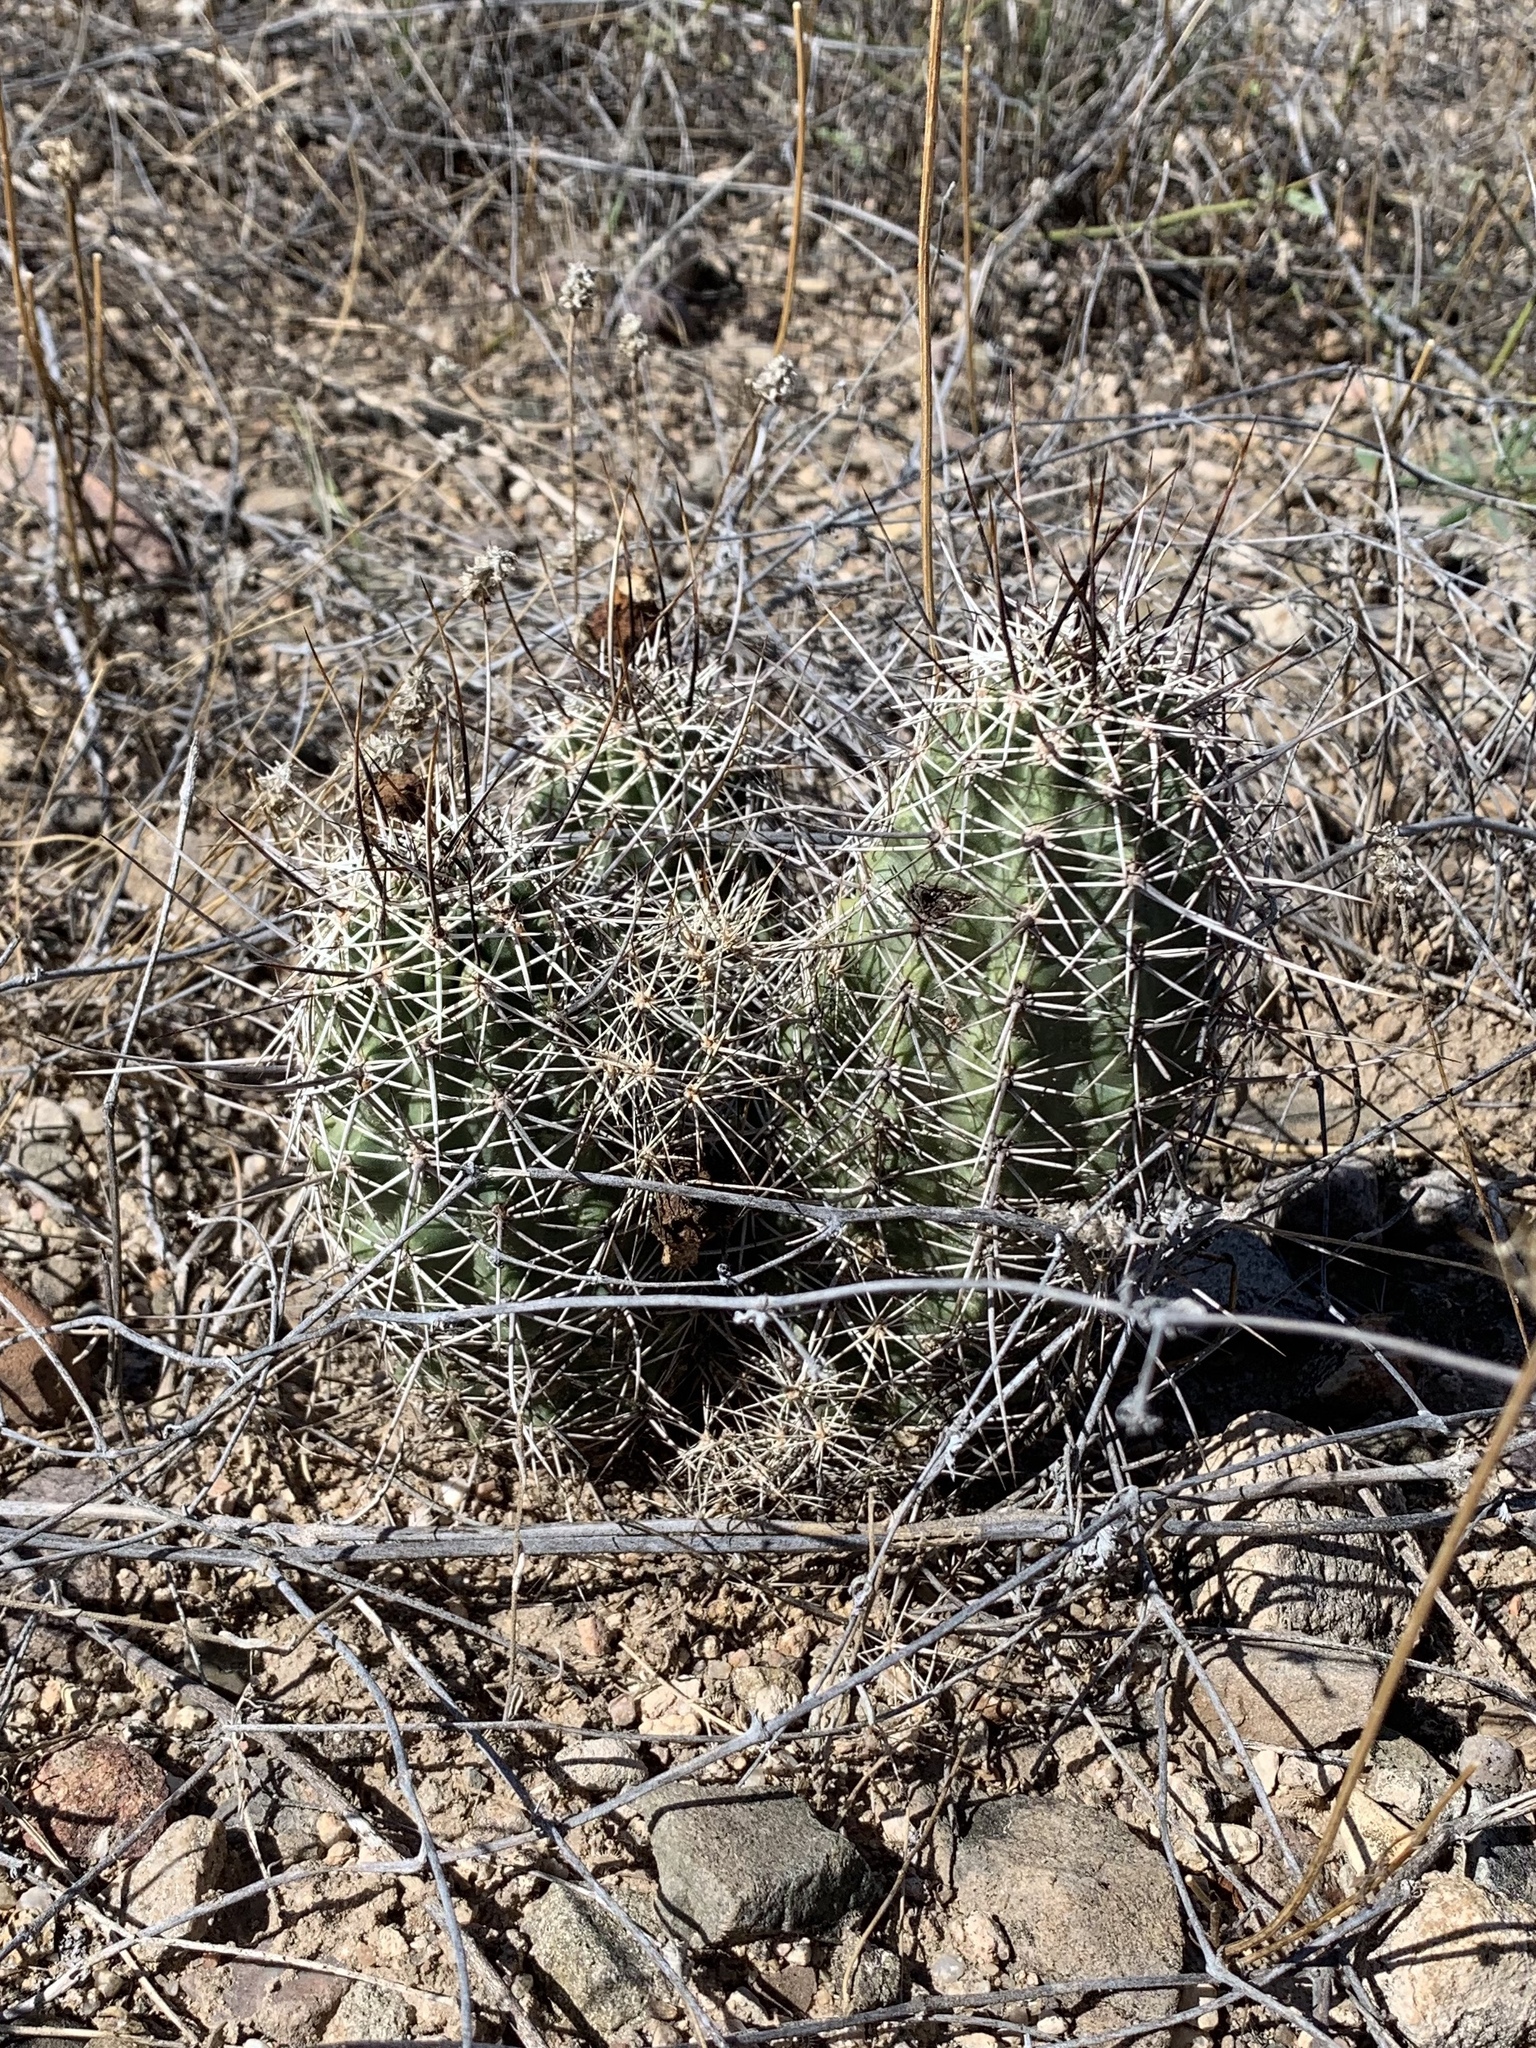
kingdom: Plantae
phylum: Tracheophyta
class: Magnoliopsida
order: Caryophyllales
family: Cactaceae
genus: Echinocereus
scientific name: Echinocereus fasciculatus
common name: Bundle hedgehog
